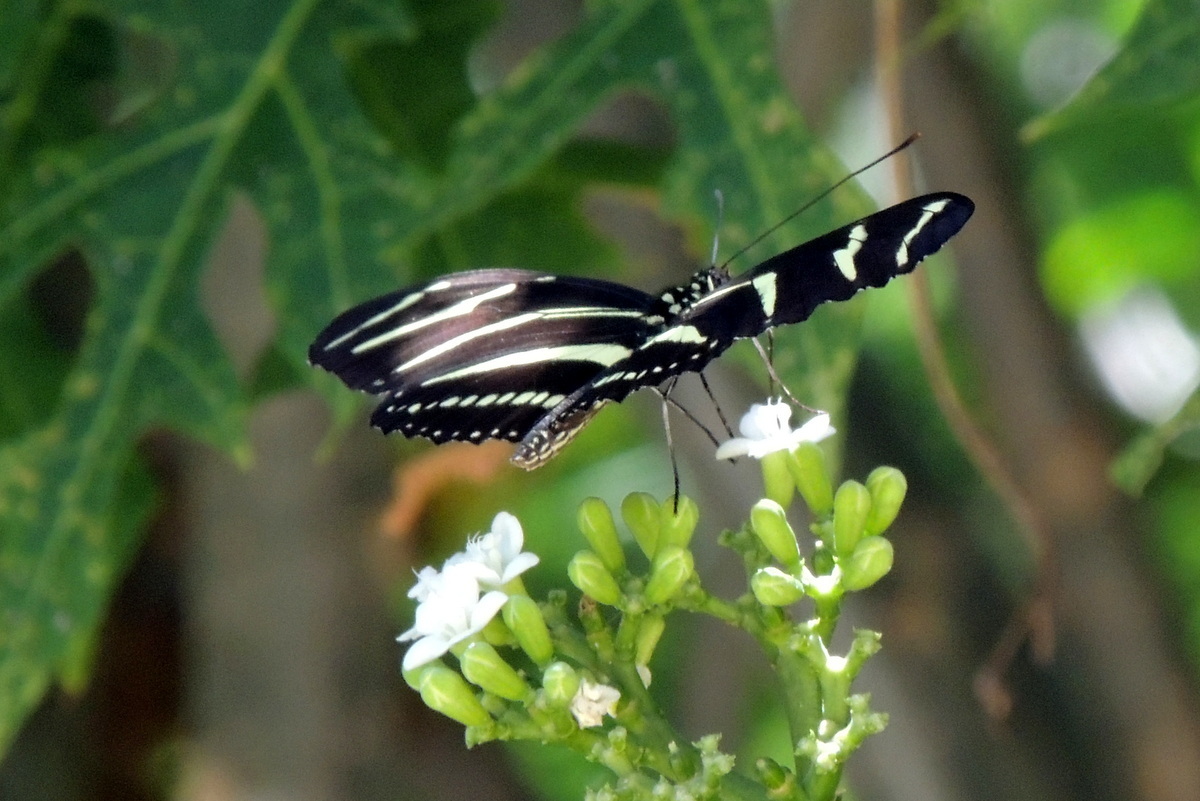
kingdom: Animalia
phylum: Arthropoda
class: Insecta
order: Lepidoptera
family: Nymphalidae
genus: Heliconius
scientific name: Heliconius charithonia
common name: Zebra long wing
